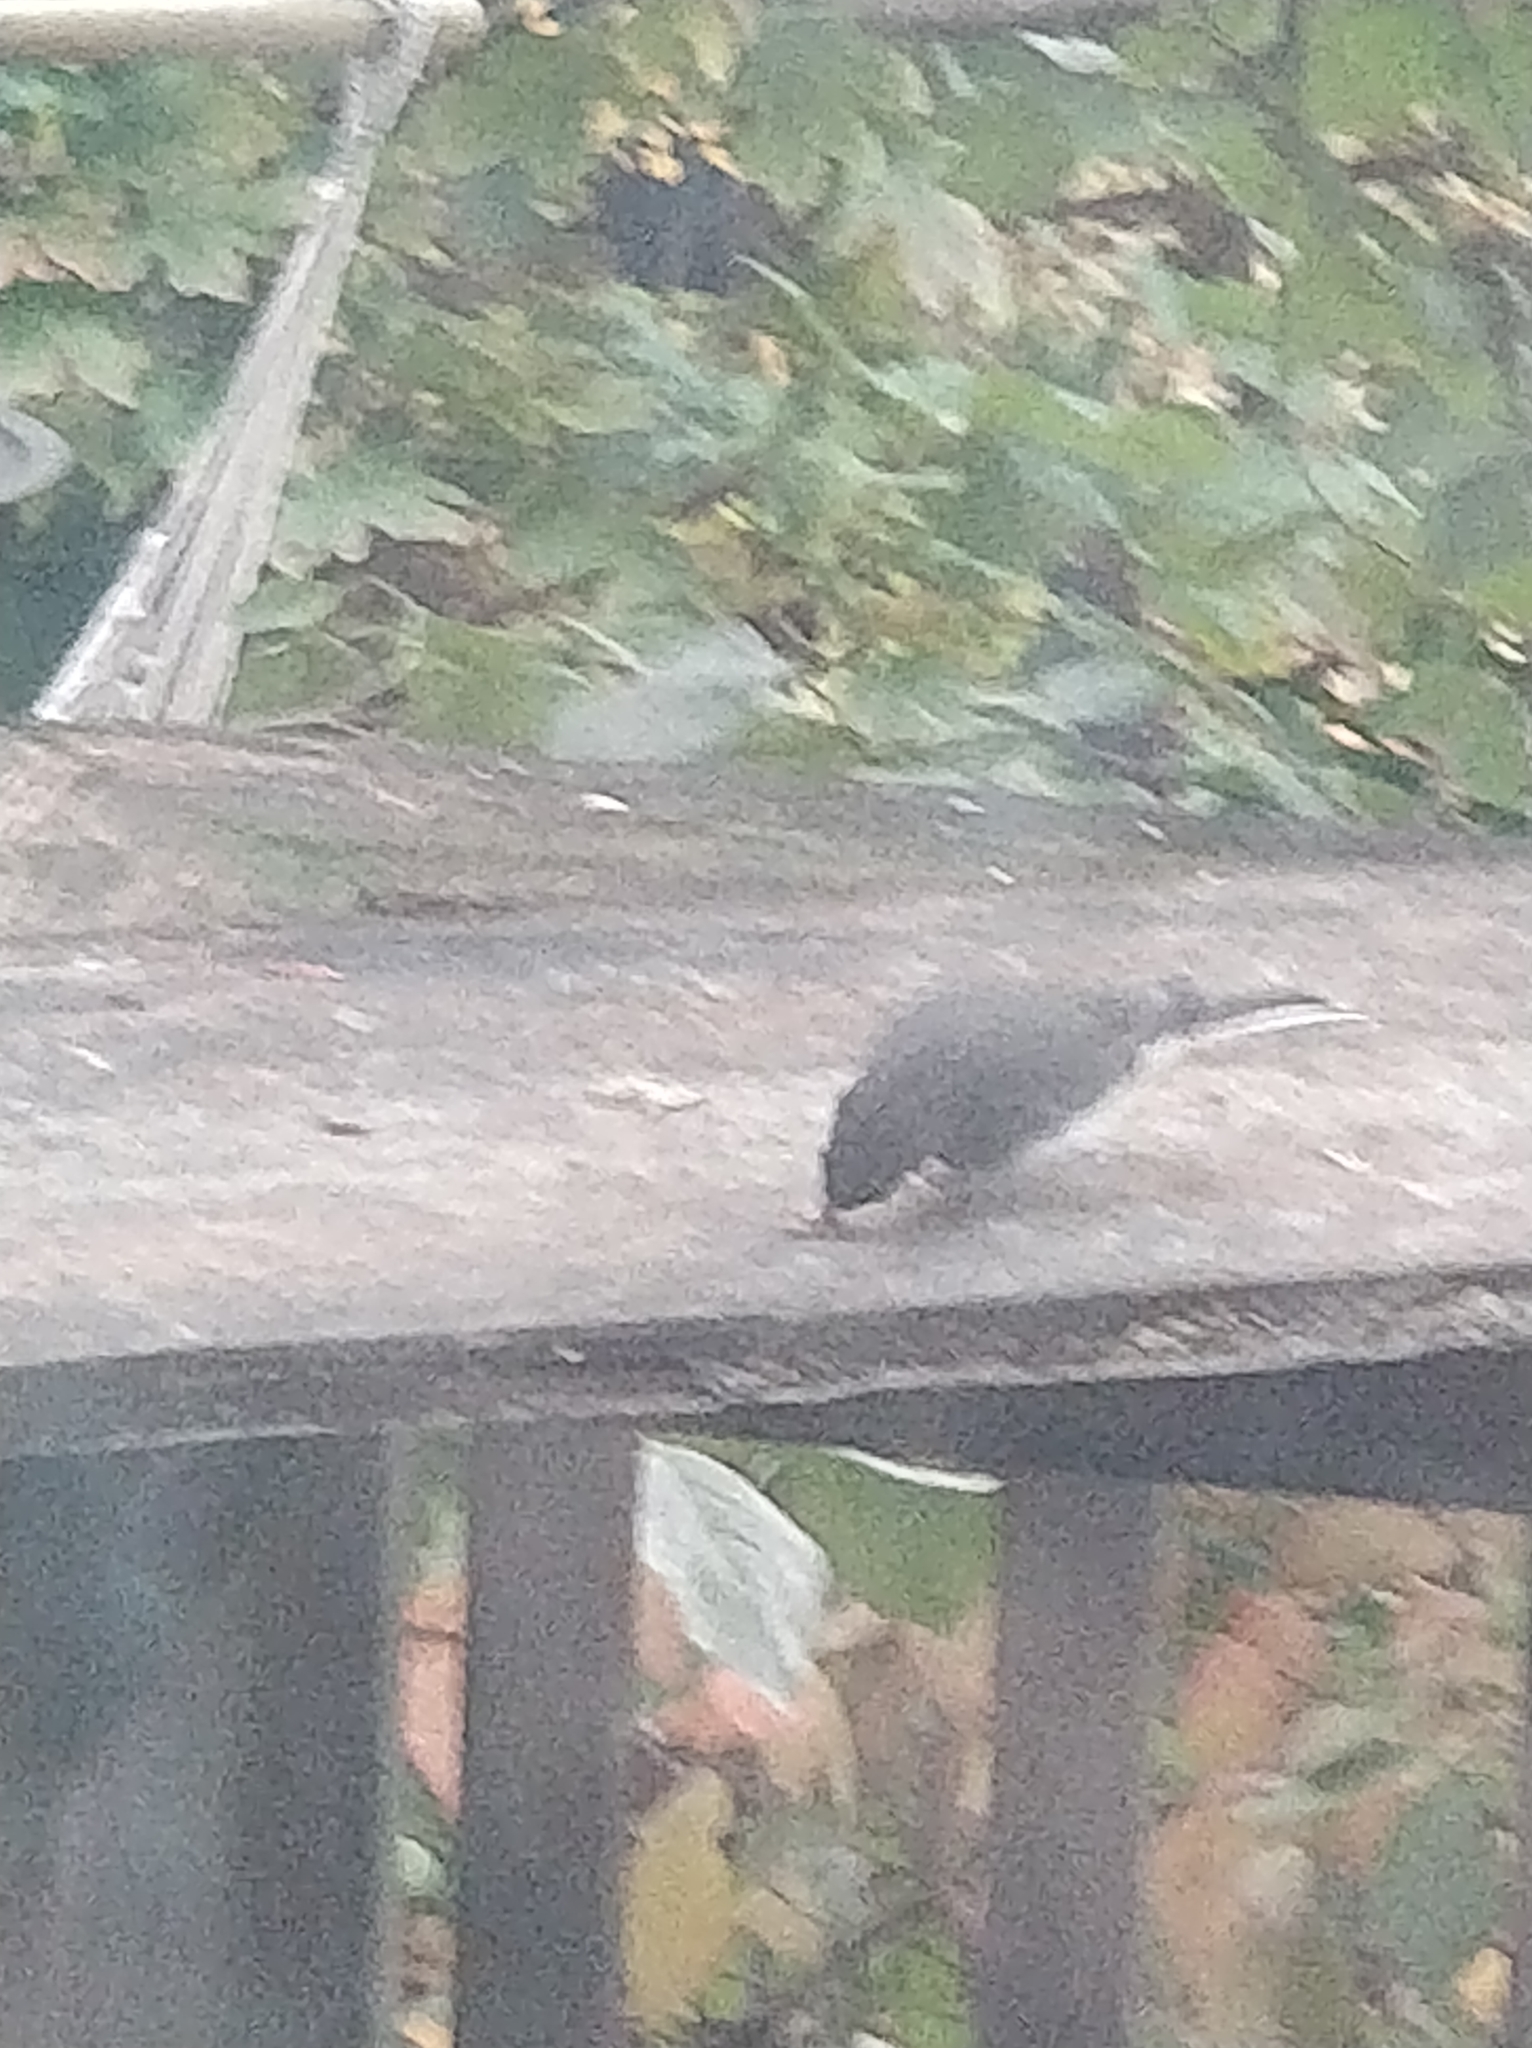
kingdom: Animalia
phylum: Chordata
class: Aves
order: Passeriformes
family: Passerellidae
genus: Junco
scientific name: Junco hyemalis
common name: Dark-eyed junco
